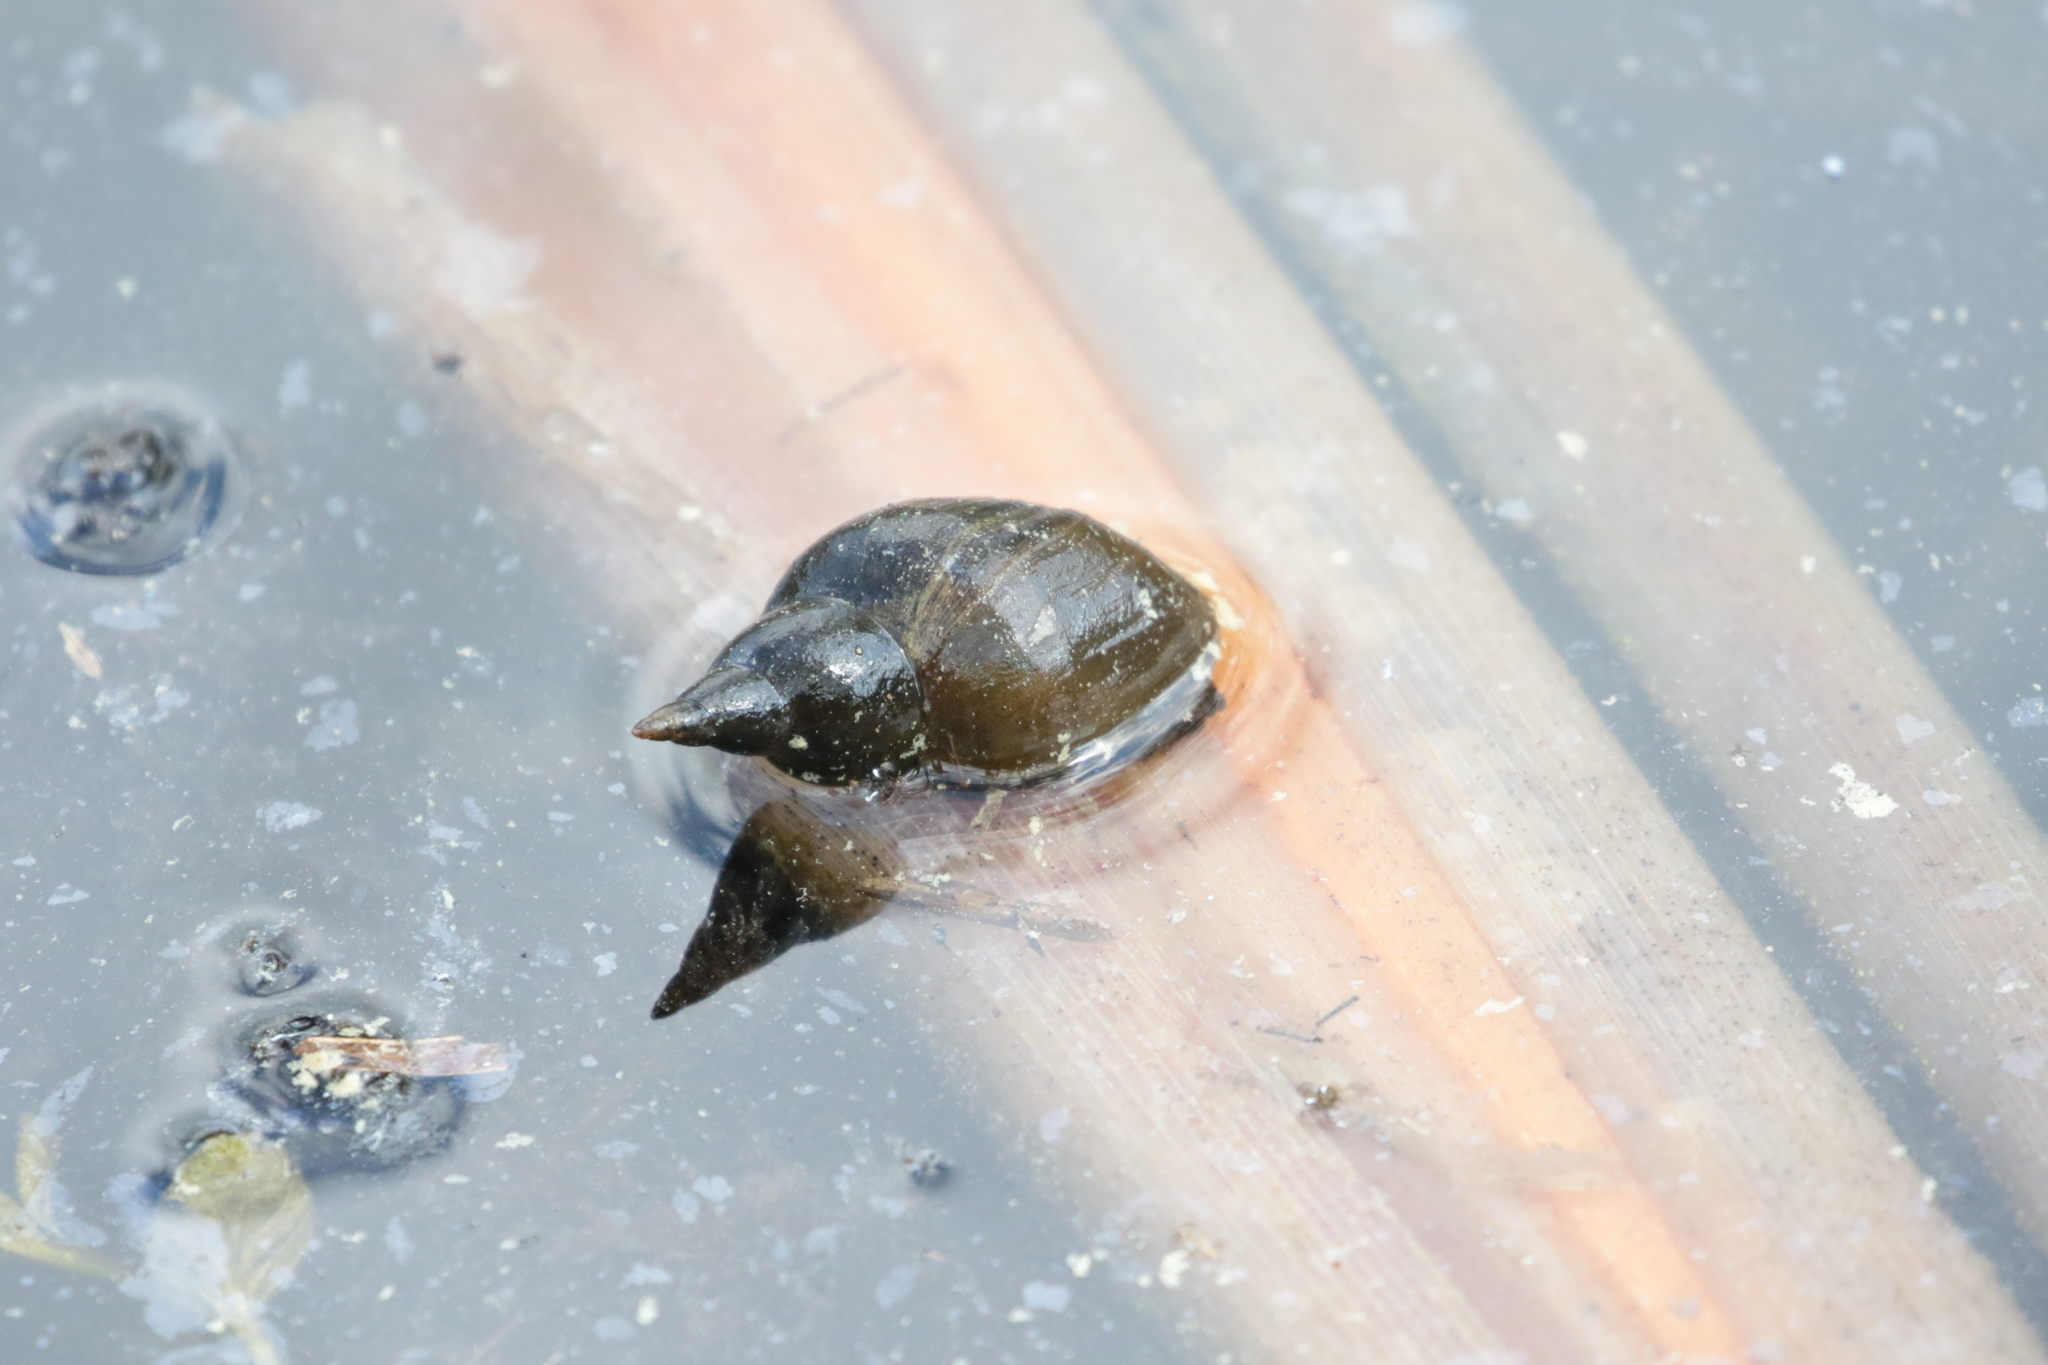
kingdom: Animalia
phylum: Mollusca
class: Gastropoda
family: Lymnaeidae
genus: Lymnaea
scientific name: Lymnaea stagnalis
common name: Great pond snail
